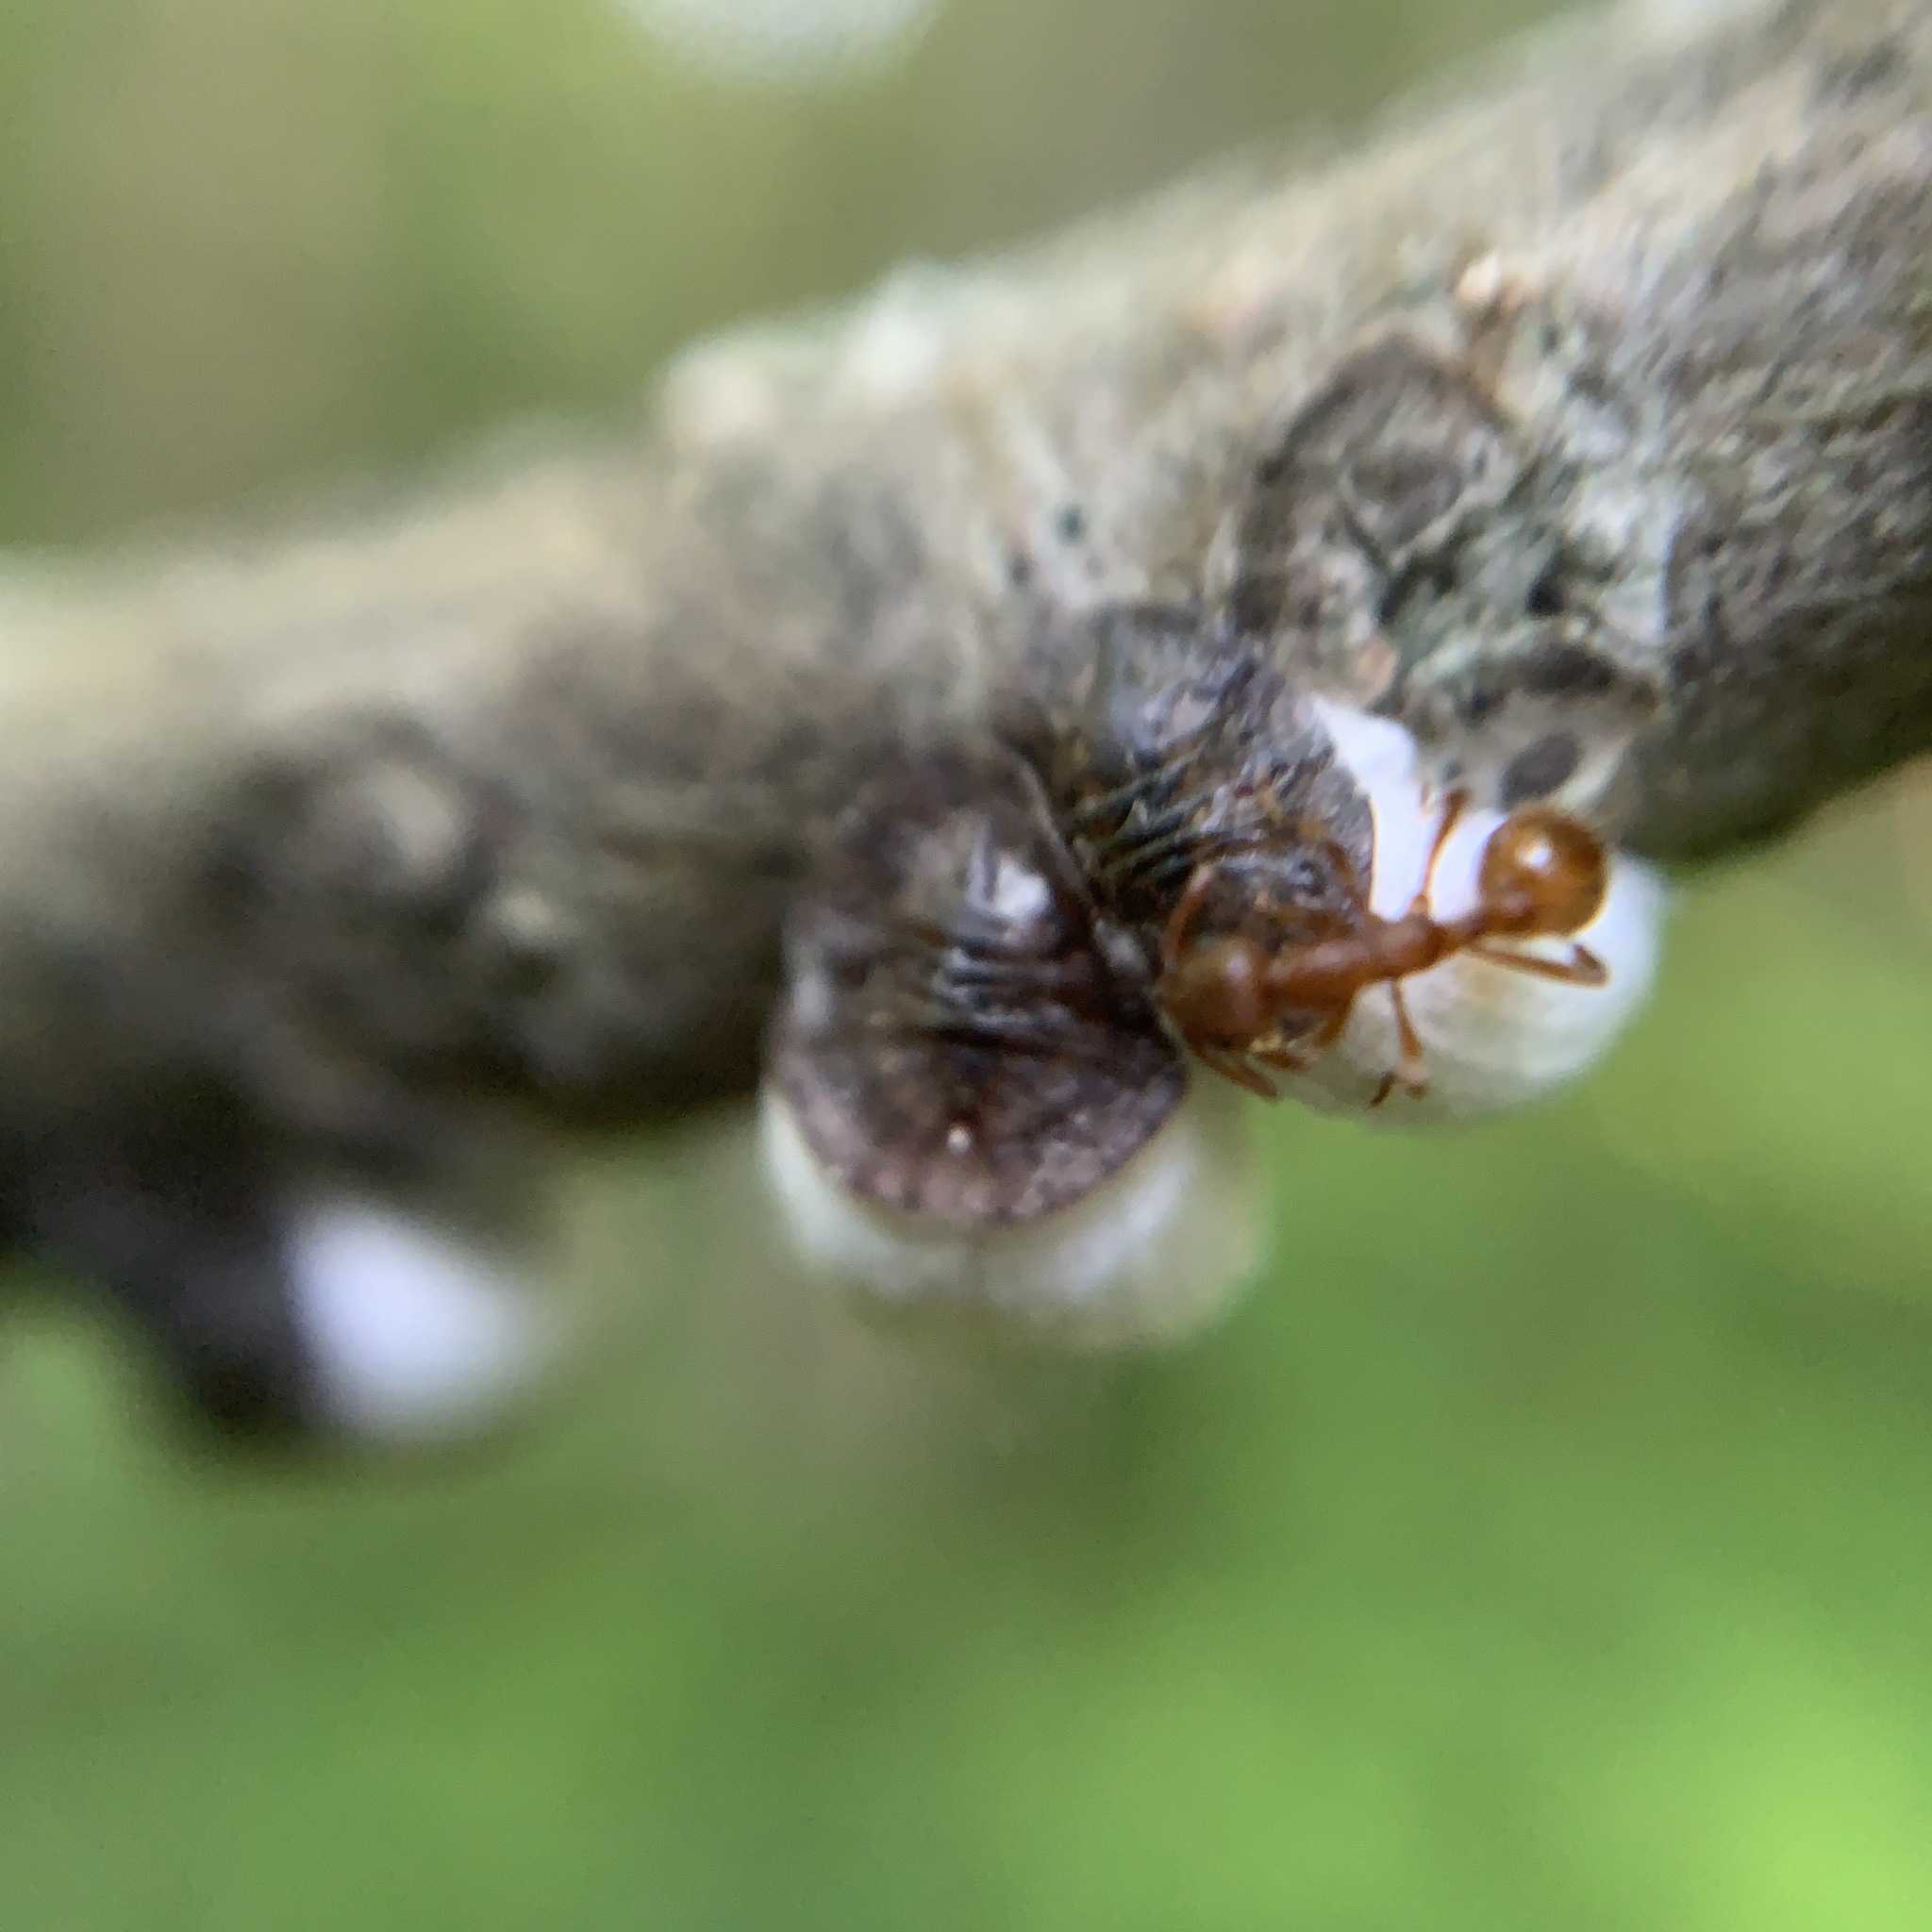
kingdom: Animalia
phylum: Arthropoda
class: Insecta
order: Hymenoptera
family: Formicidae
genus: Myrmica
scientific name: Myrmica rubra
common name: European fire ant
